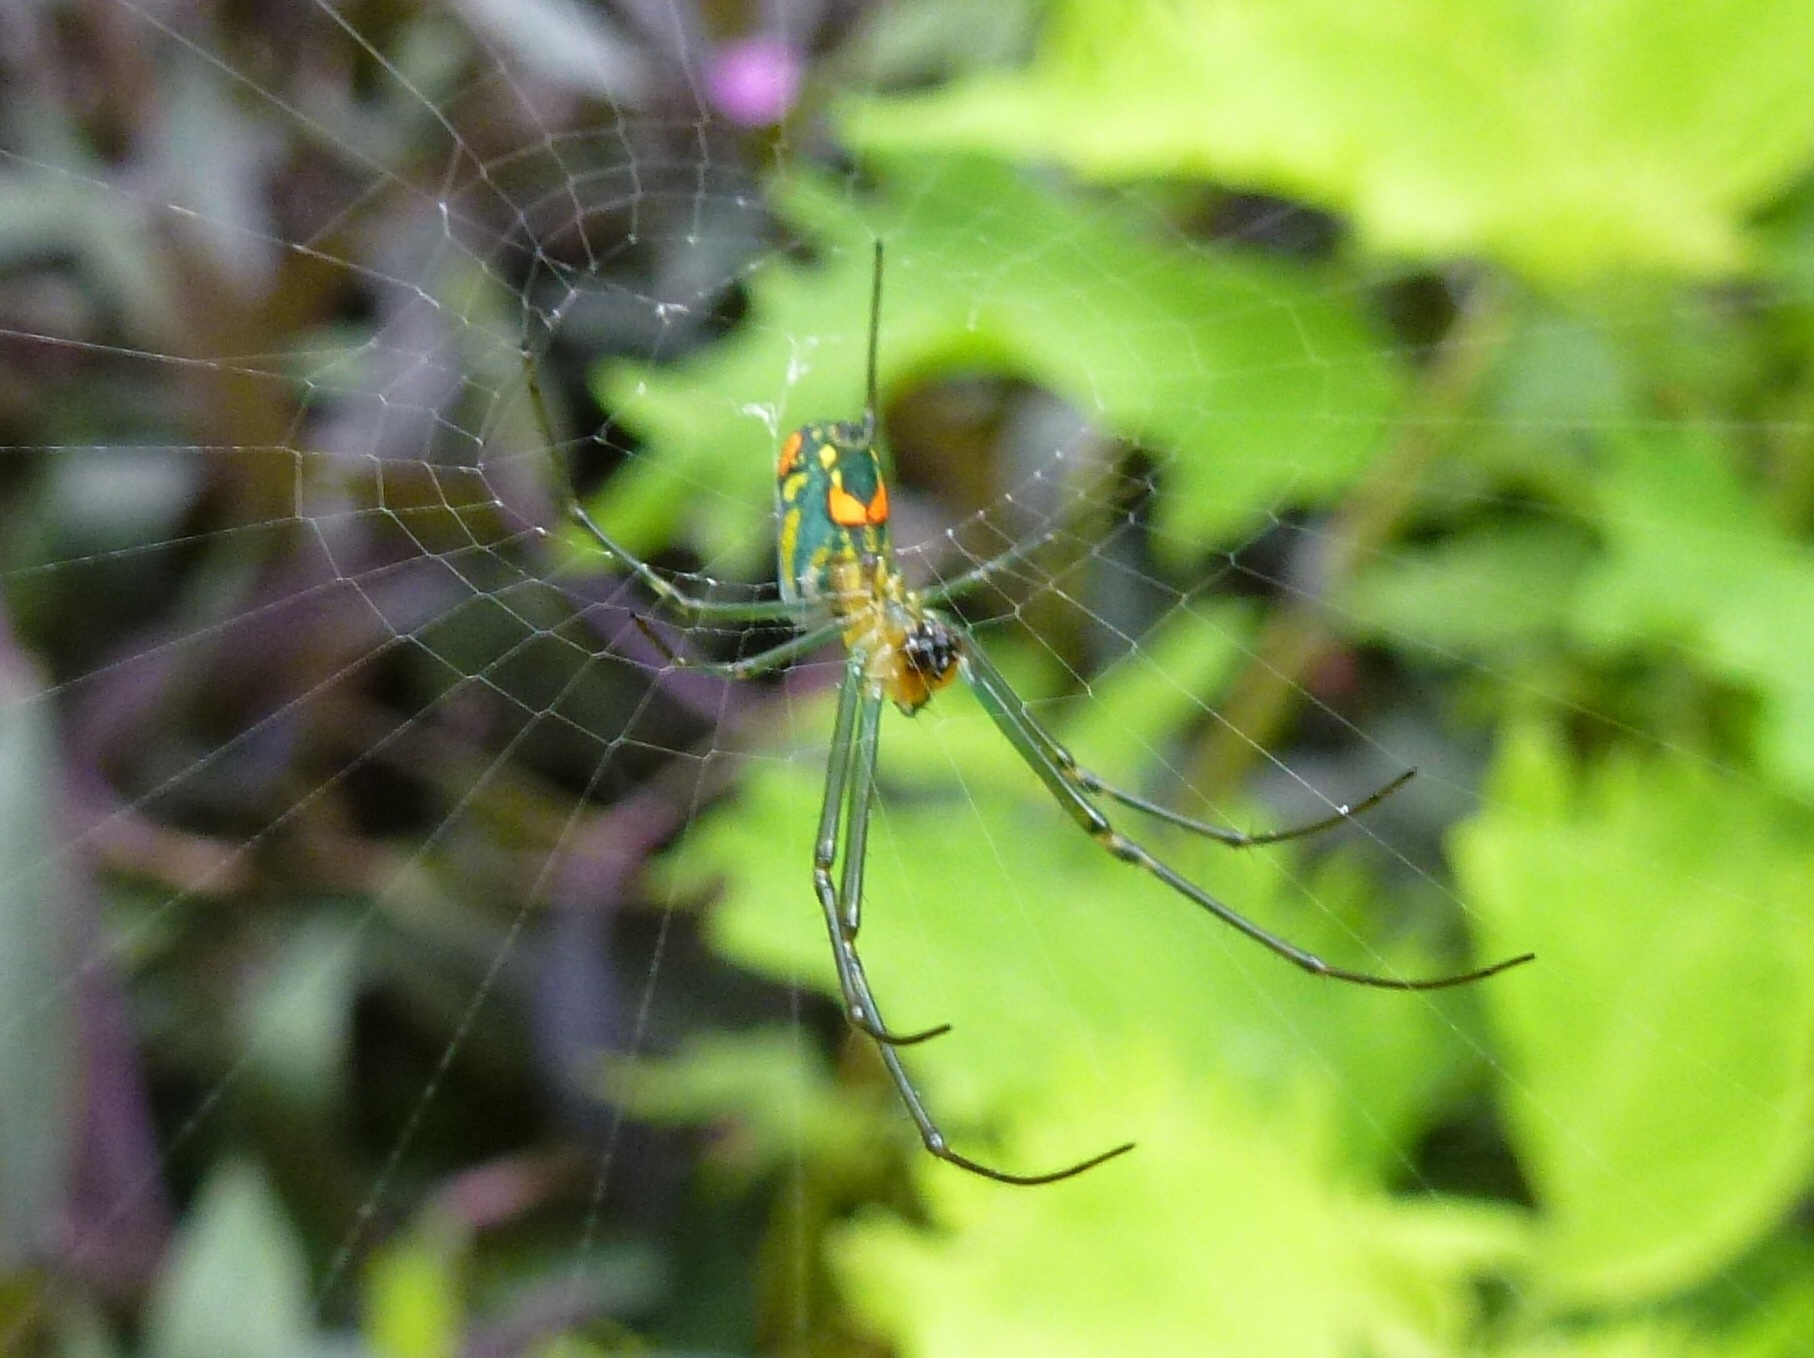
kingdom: Animalia
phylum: Arthropoda
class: Arachnida
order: Araneae
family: Tetragnathidae
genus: Leucauge
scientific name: Leucauge argyrobapta
